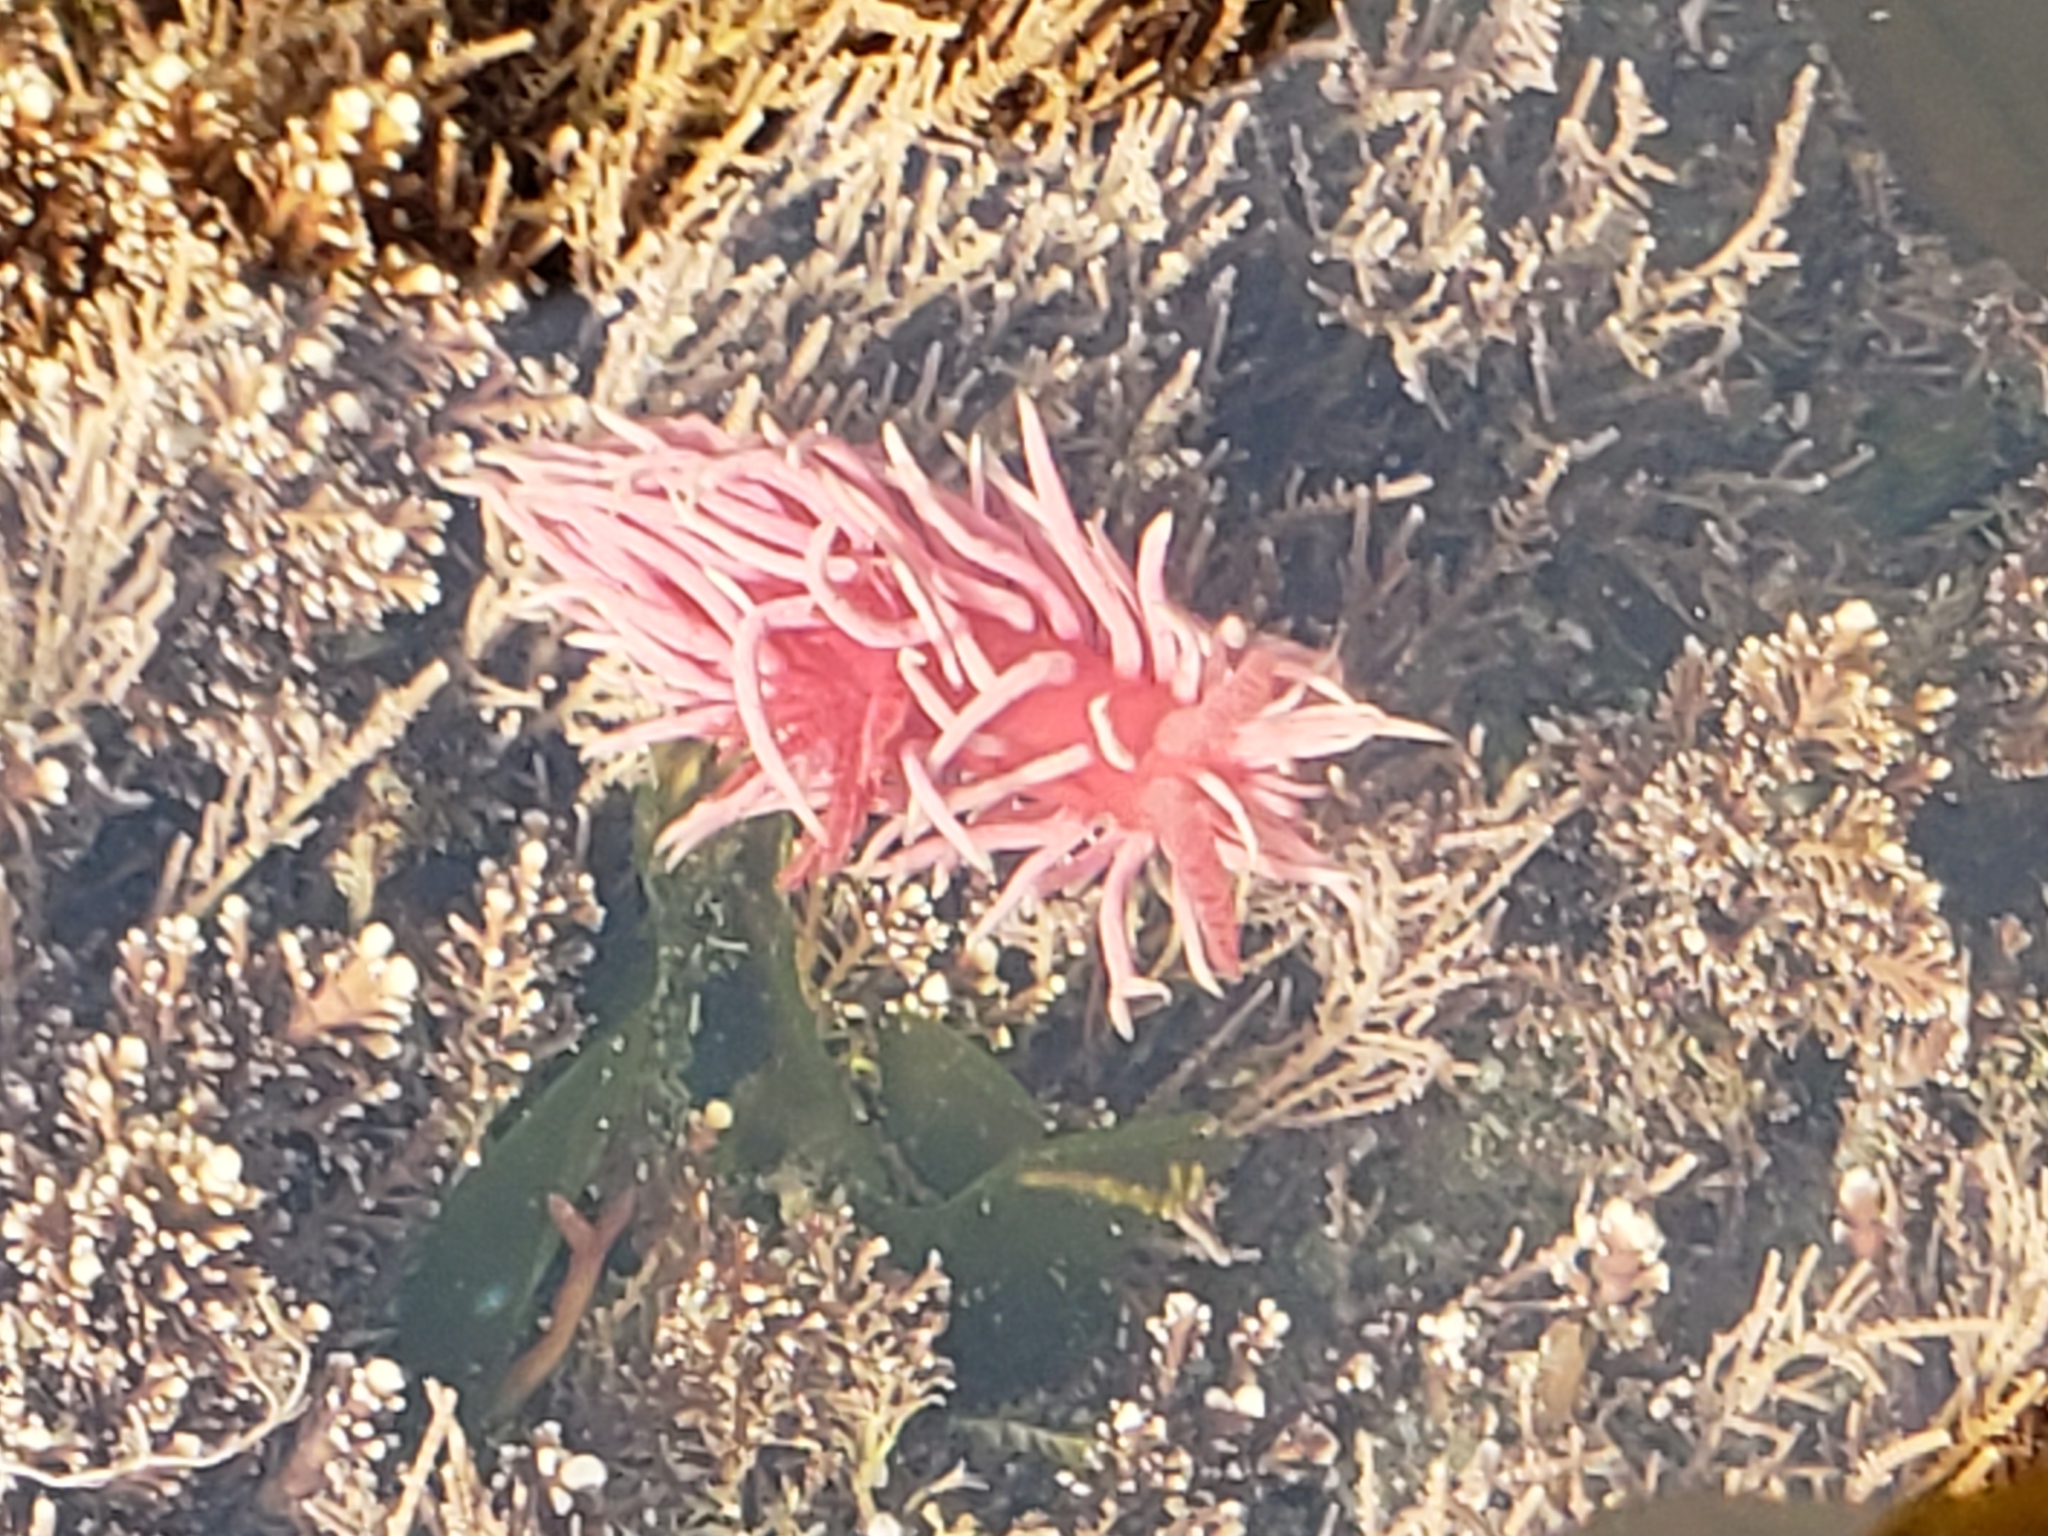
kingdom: Animalia
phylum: Mollusca
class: Gastropoda
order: Nudibranchia
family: Goniodorididae
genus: Okenia
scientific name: Okenia
